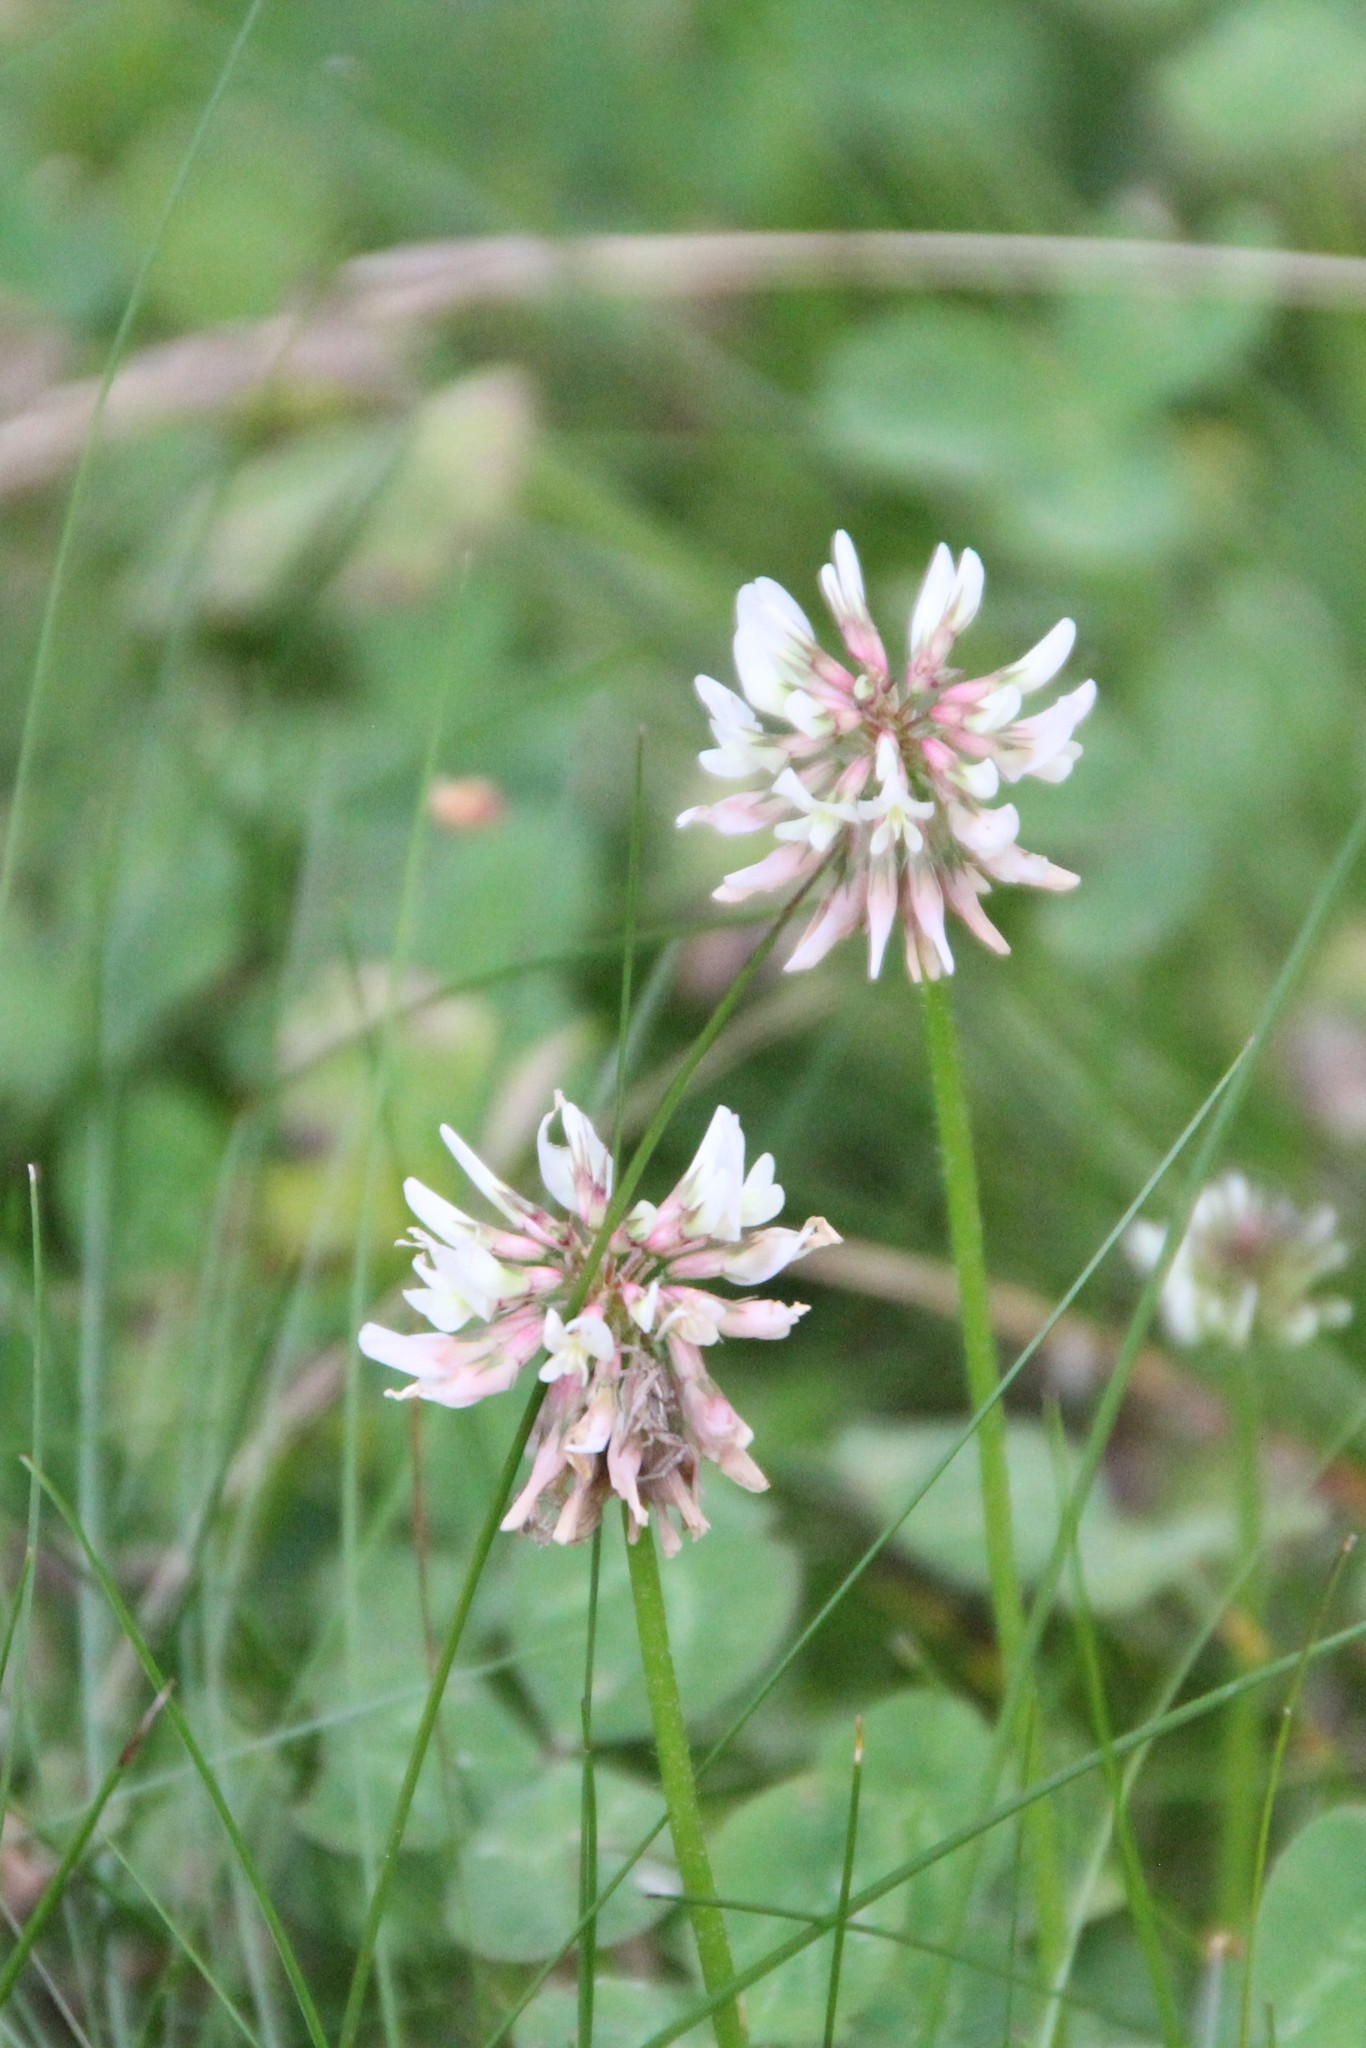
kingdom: Plantae
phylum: Tracheophyta
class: Magnoliopsida
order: Fabales
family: Fabaceae
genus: Trifolium
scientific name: Trifolium repens
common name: White clover
